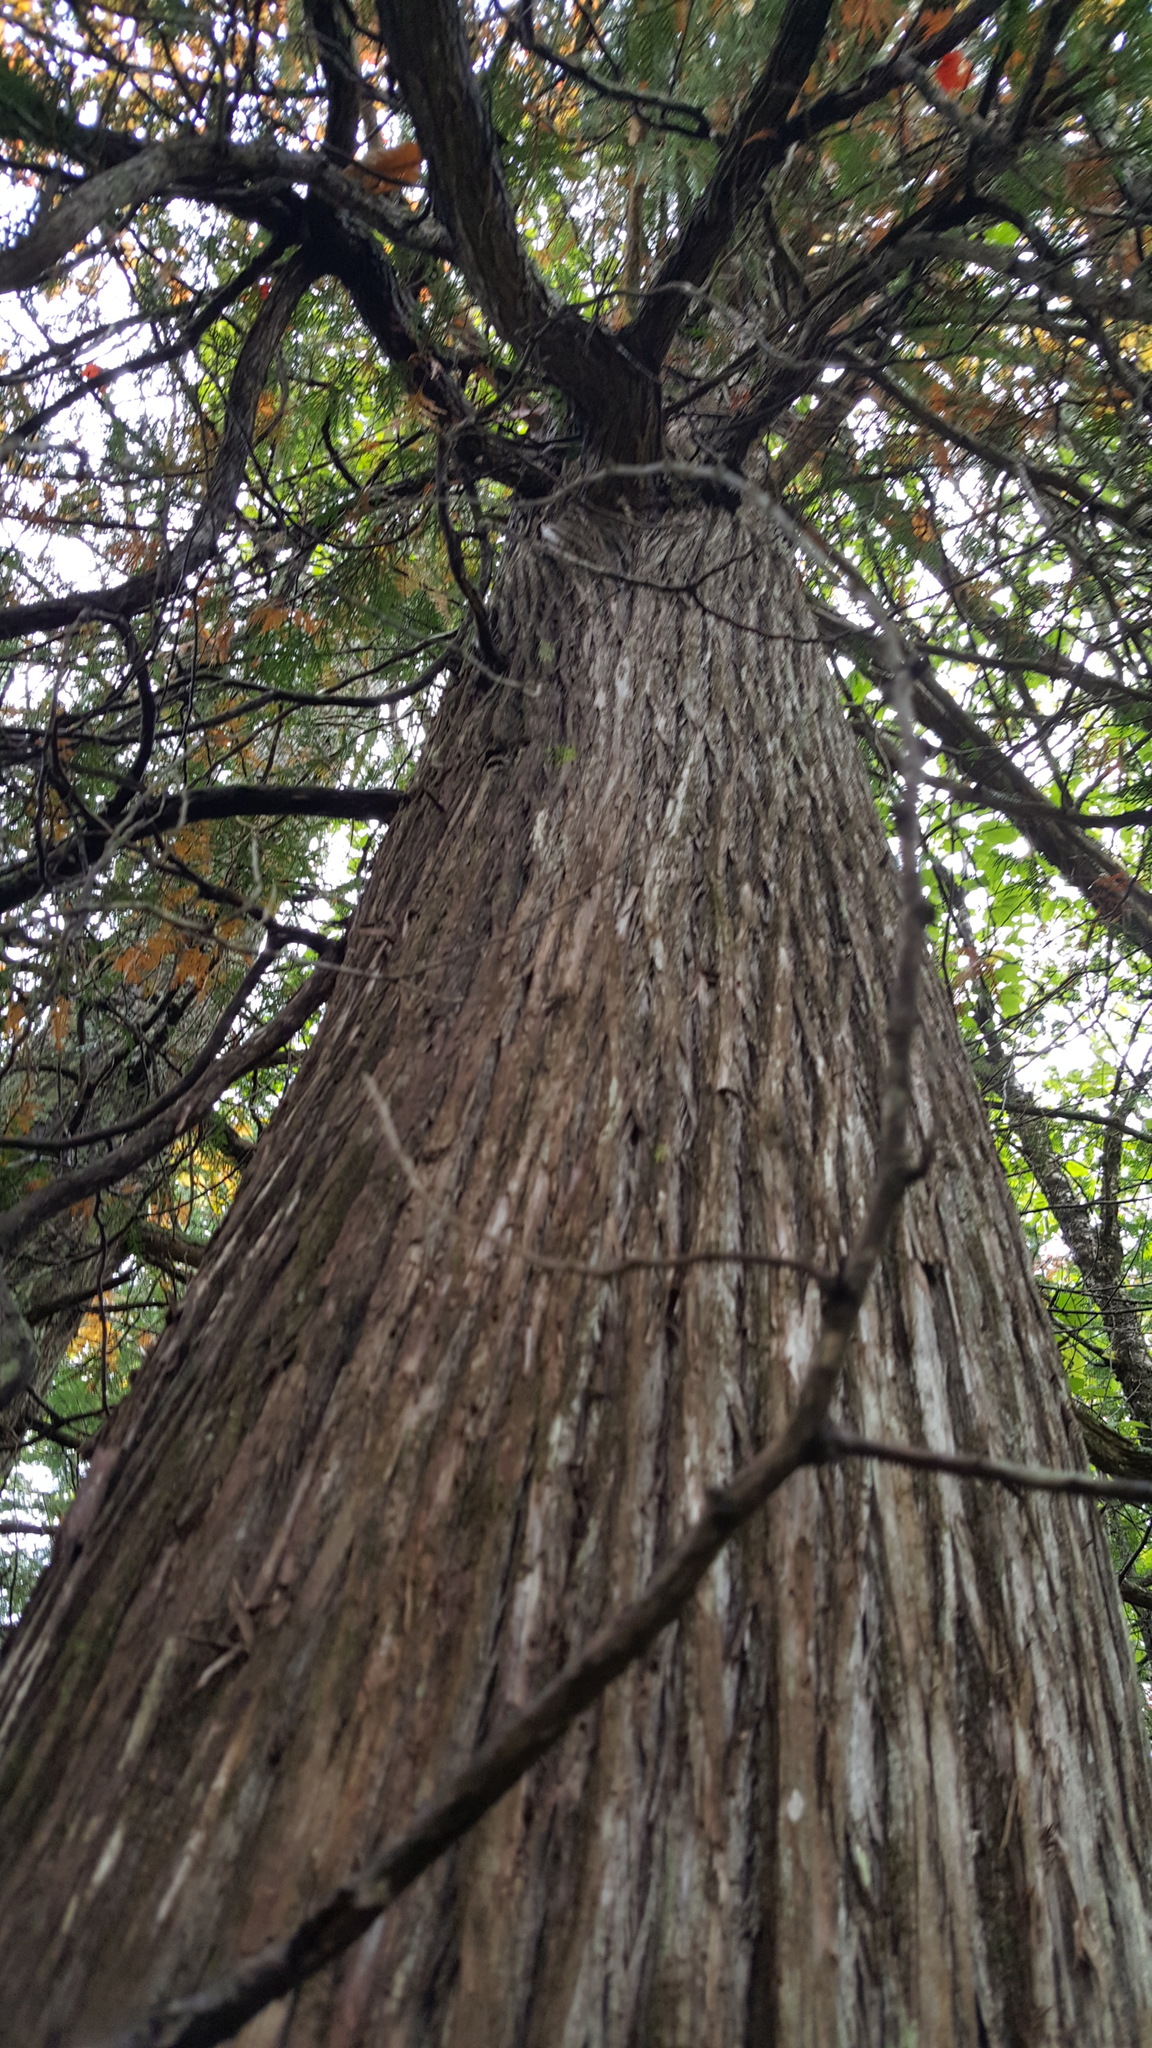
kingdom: Plantae
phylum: Tracheophyta
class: Pinopsida
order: Pinales
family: Cupressaceae
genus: Thuja
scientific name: Thuja occidentalis
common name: Northern white-cedar
